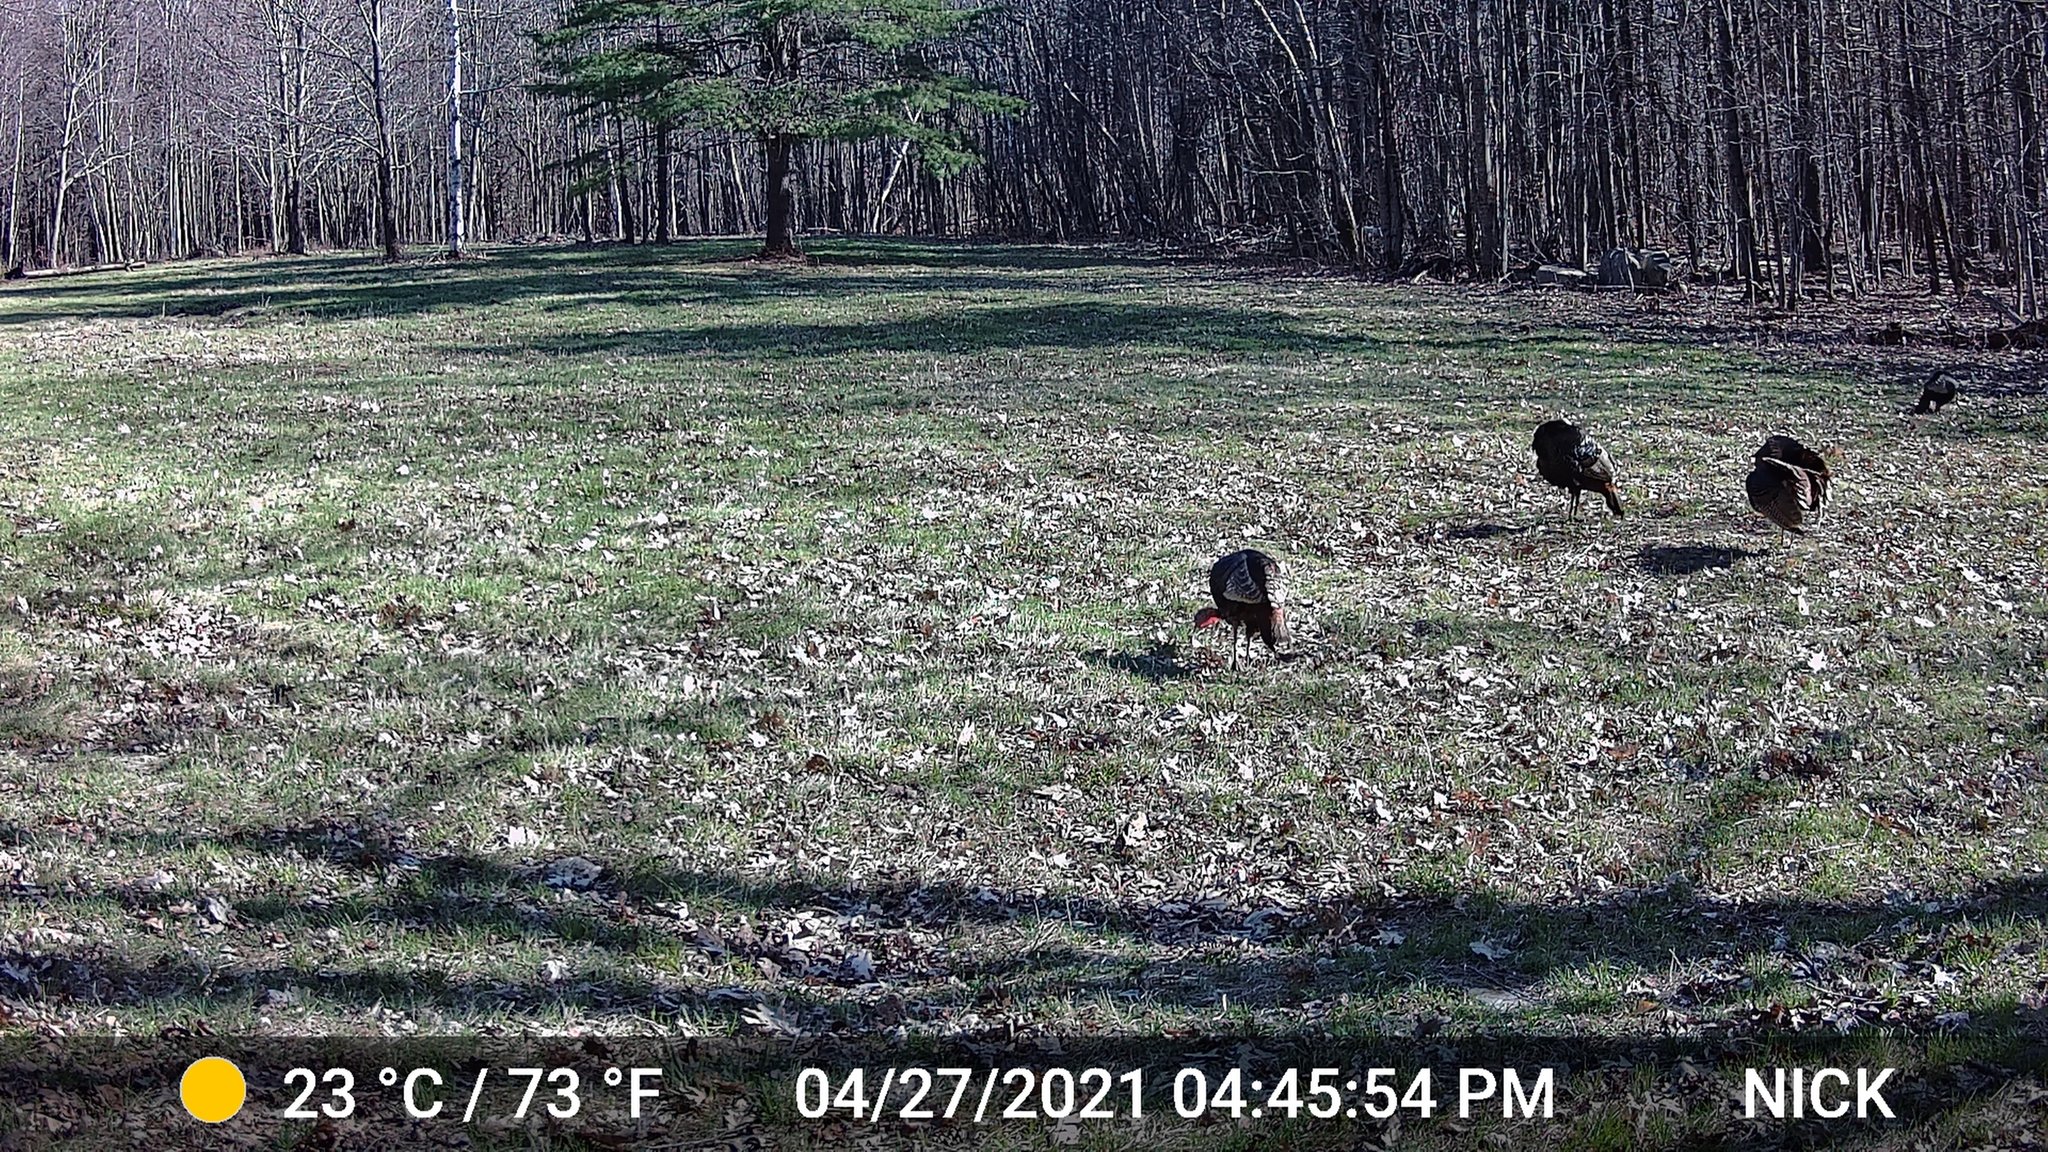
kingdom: Animalia
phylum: Chordata
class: Aves
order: Galliformes
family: Phasianidae
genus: Meleagris
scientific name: Meleagris gallopavo
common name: Wild turkey
